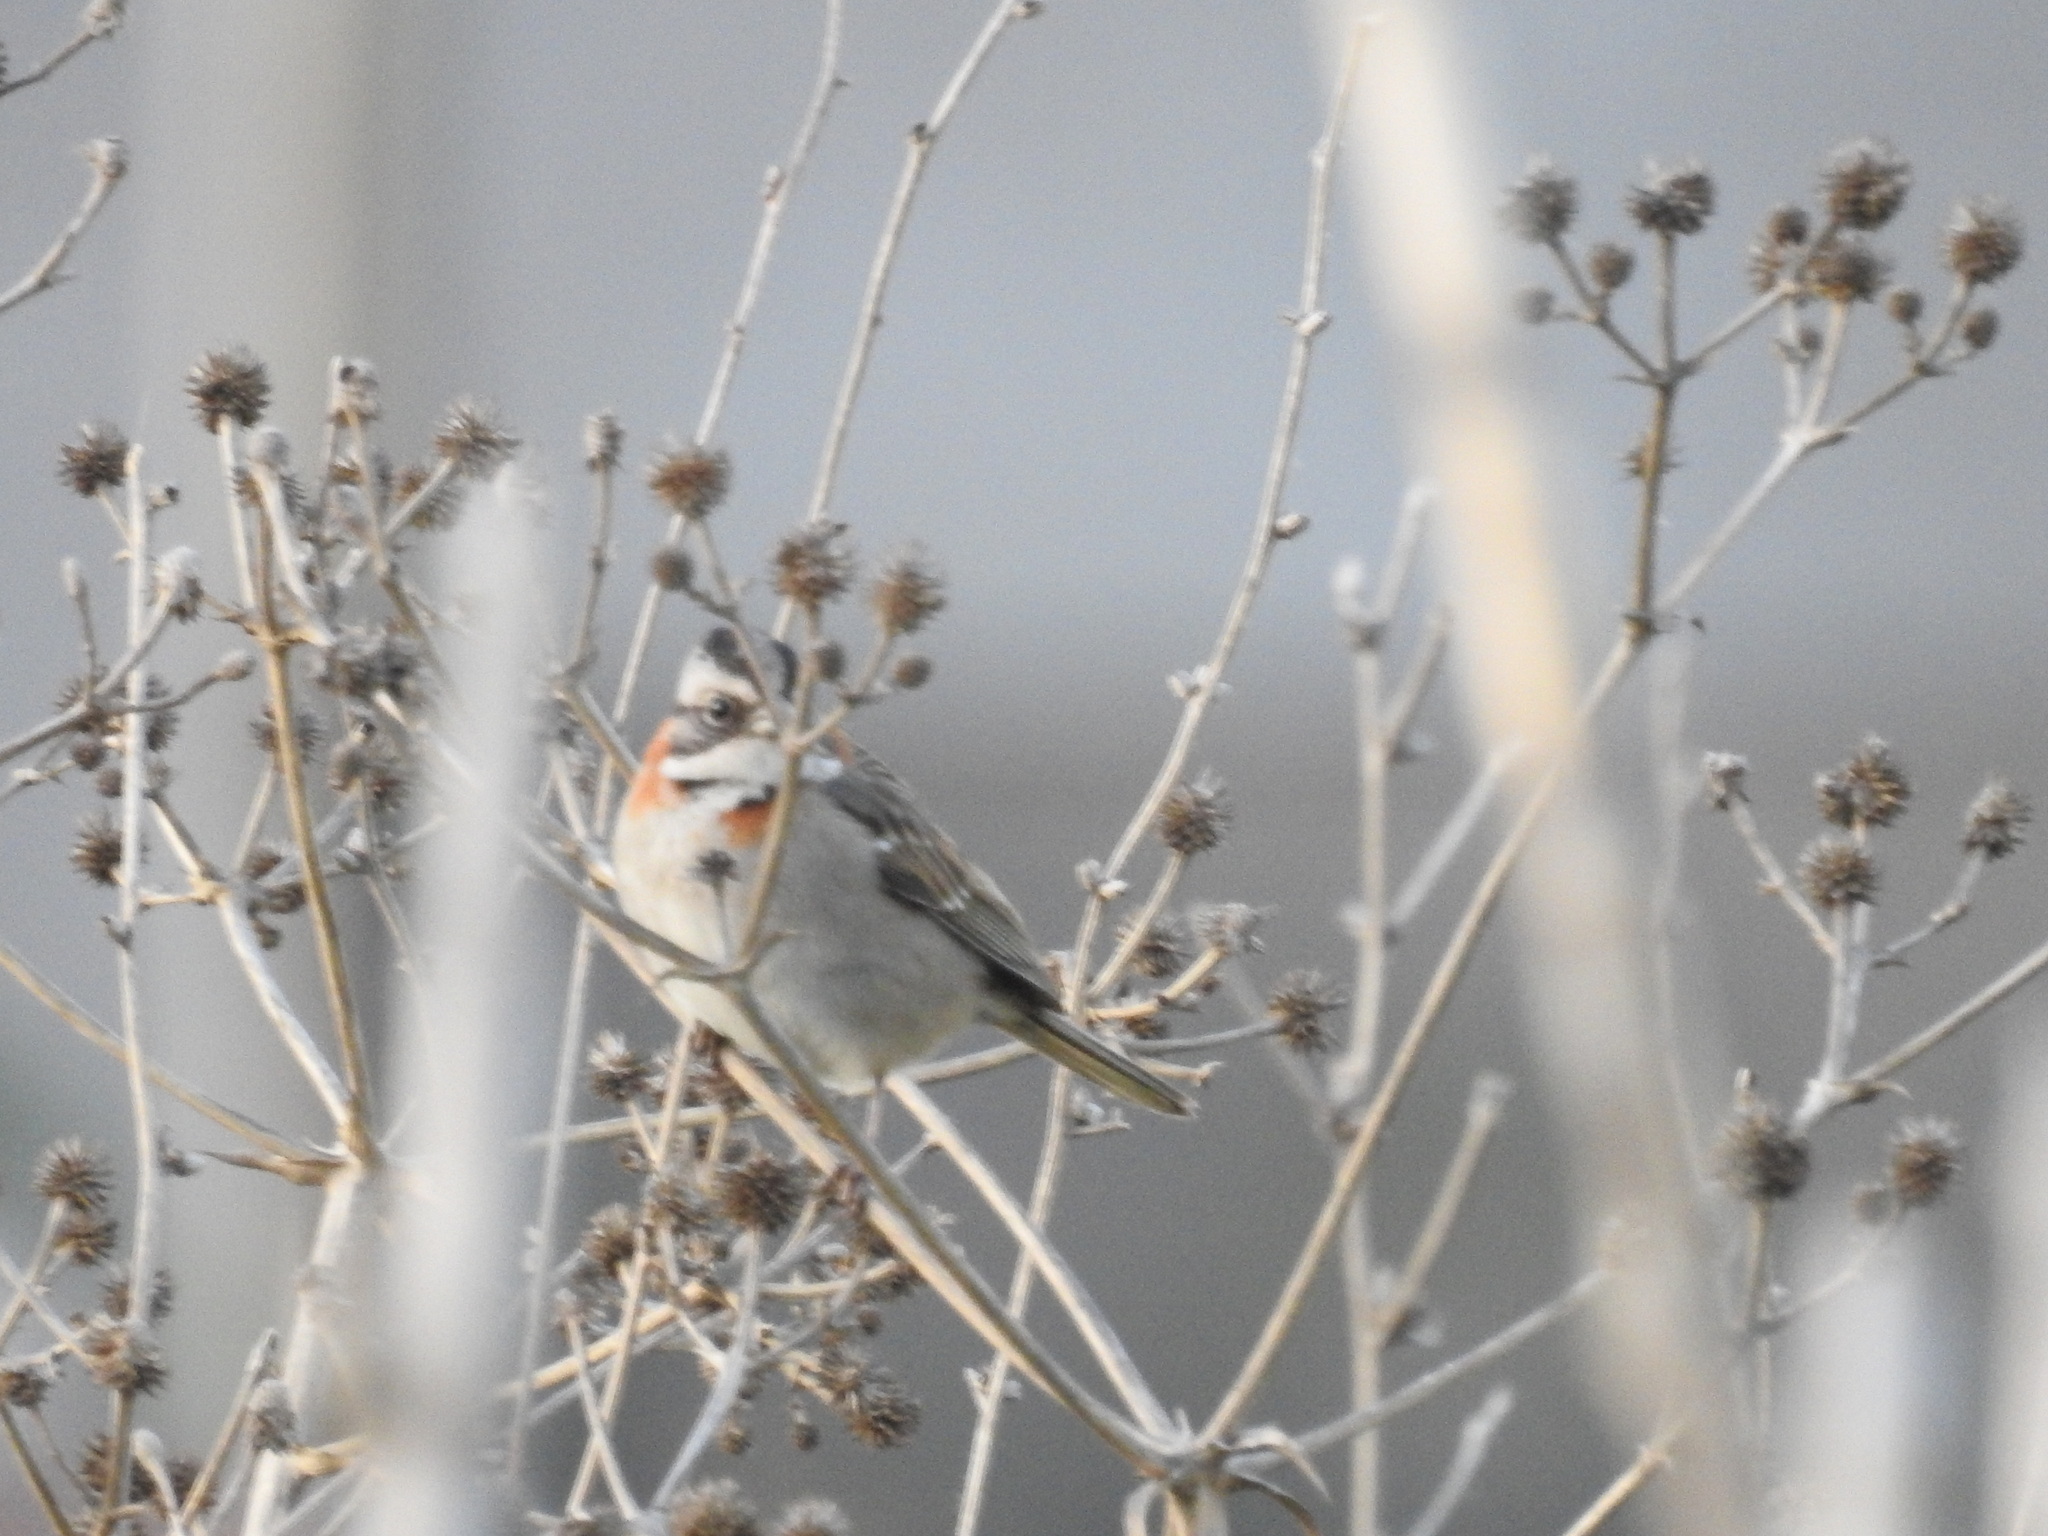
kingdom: Animalia
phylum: Chordata
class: Aves
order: Passeriformes
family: Passerellidae
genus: Zonotrichia
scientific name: Zonotrichia capensis
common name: Rufous-collared sparrow
